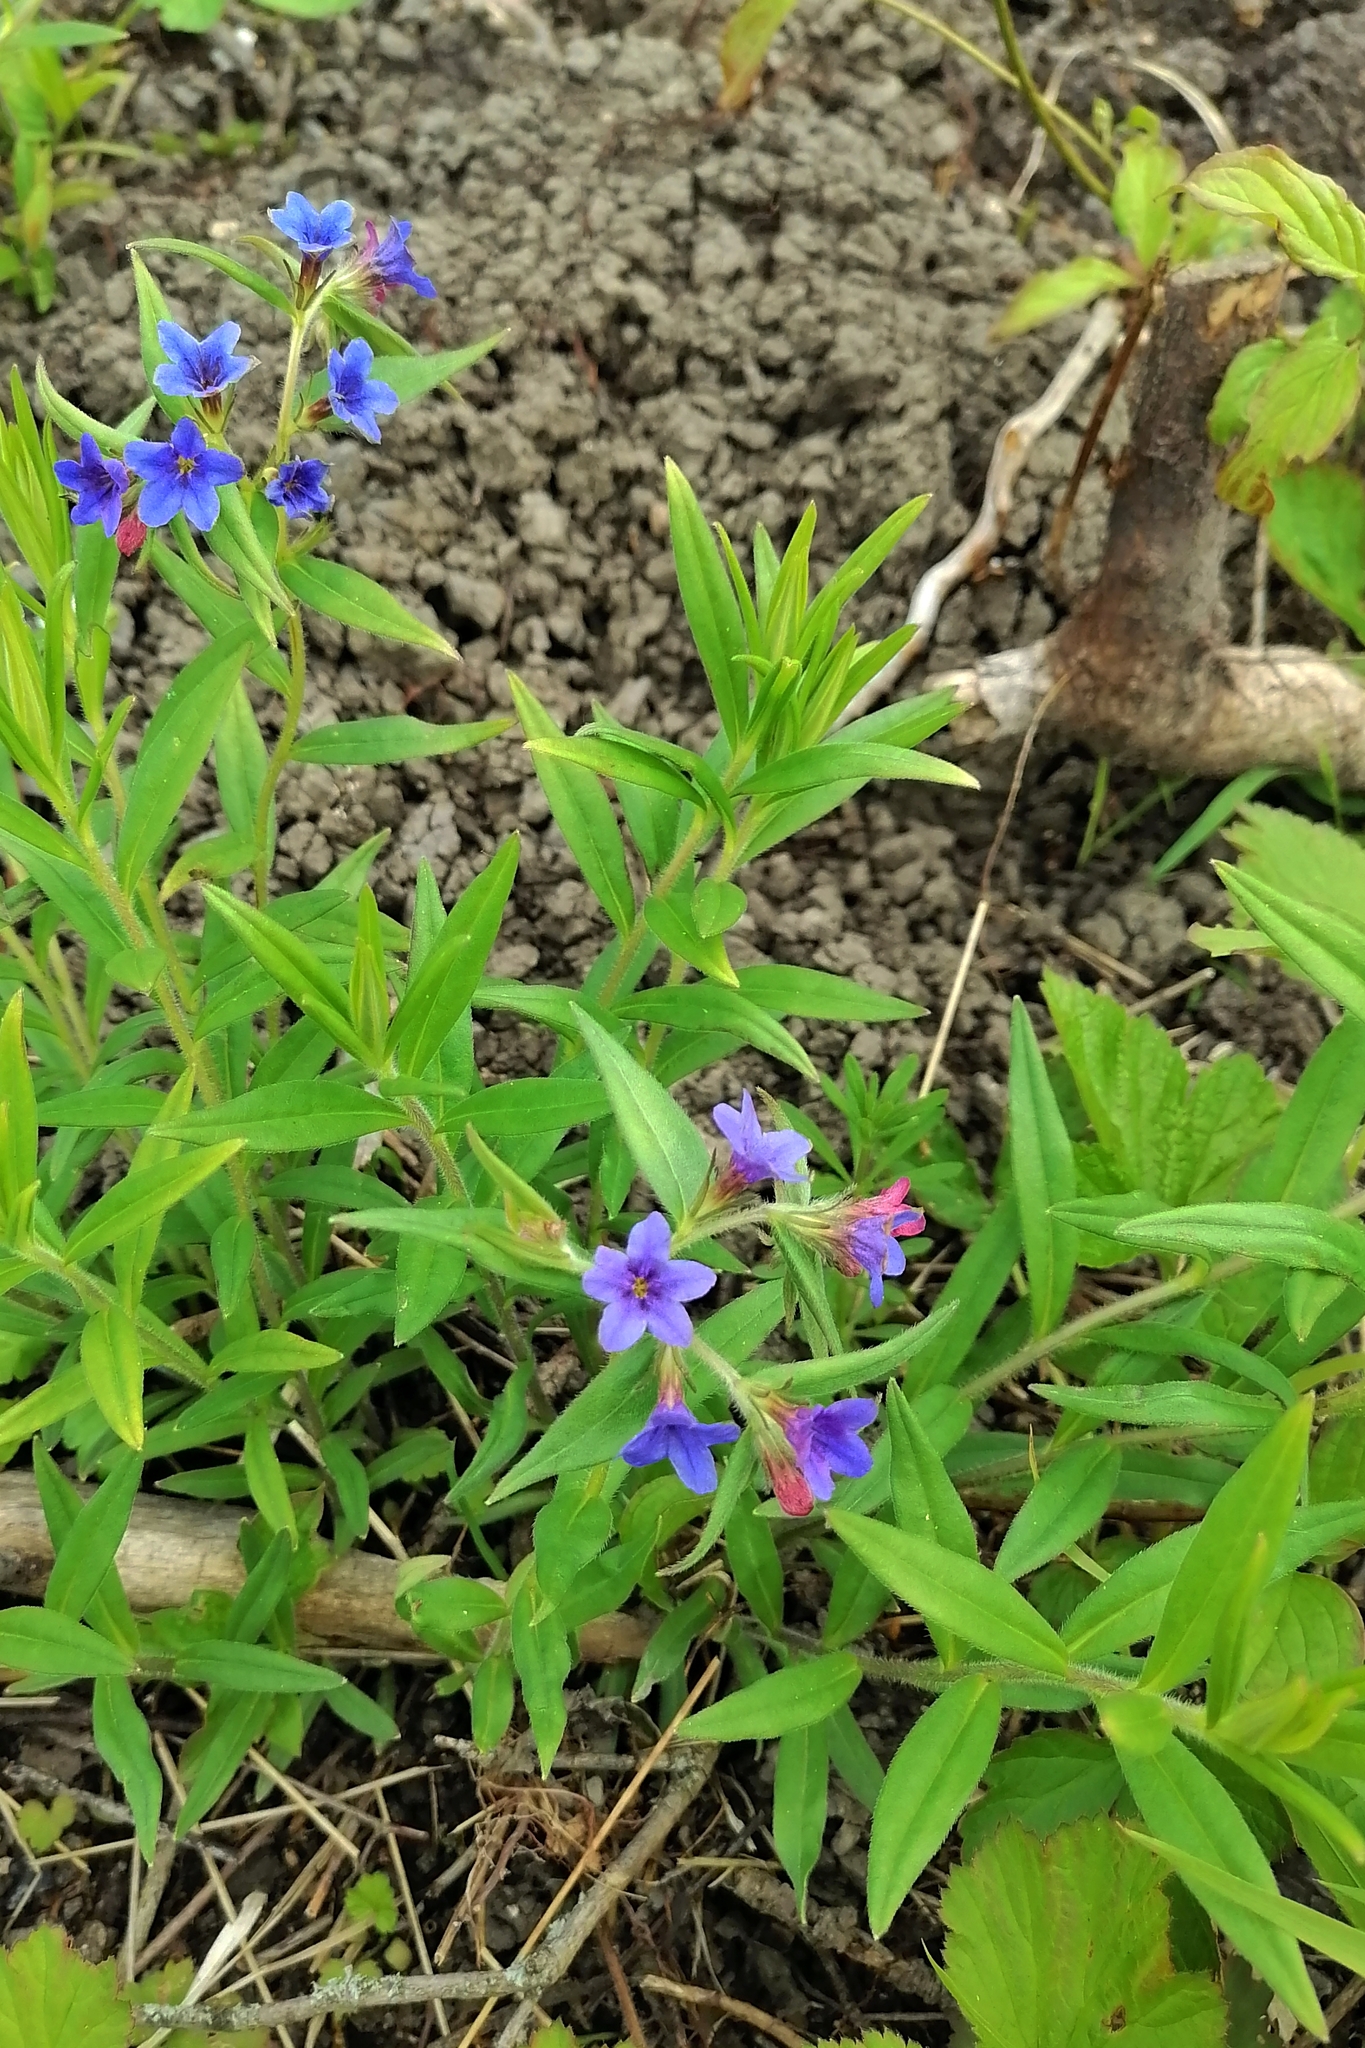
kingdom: Plantae
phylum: Tracheophyta
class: Magnoliopsida
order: Boraginales
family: Boraginaceae
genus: Aegonychon
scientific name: Aegonychon purpurocaeruleum
